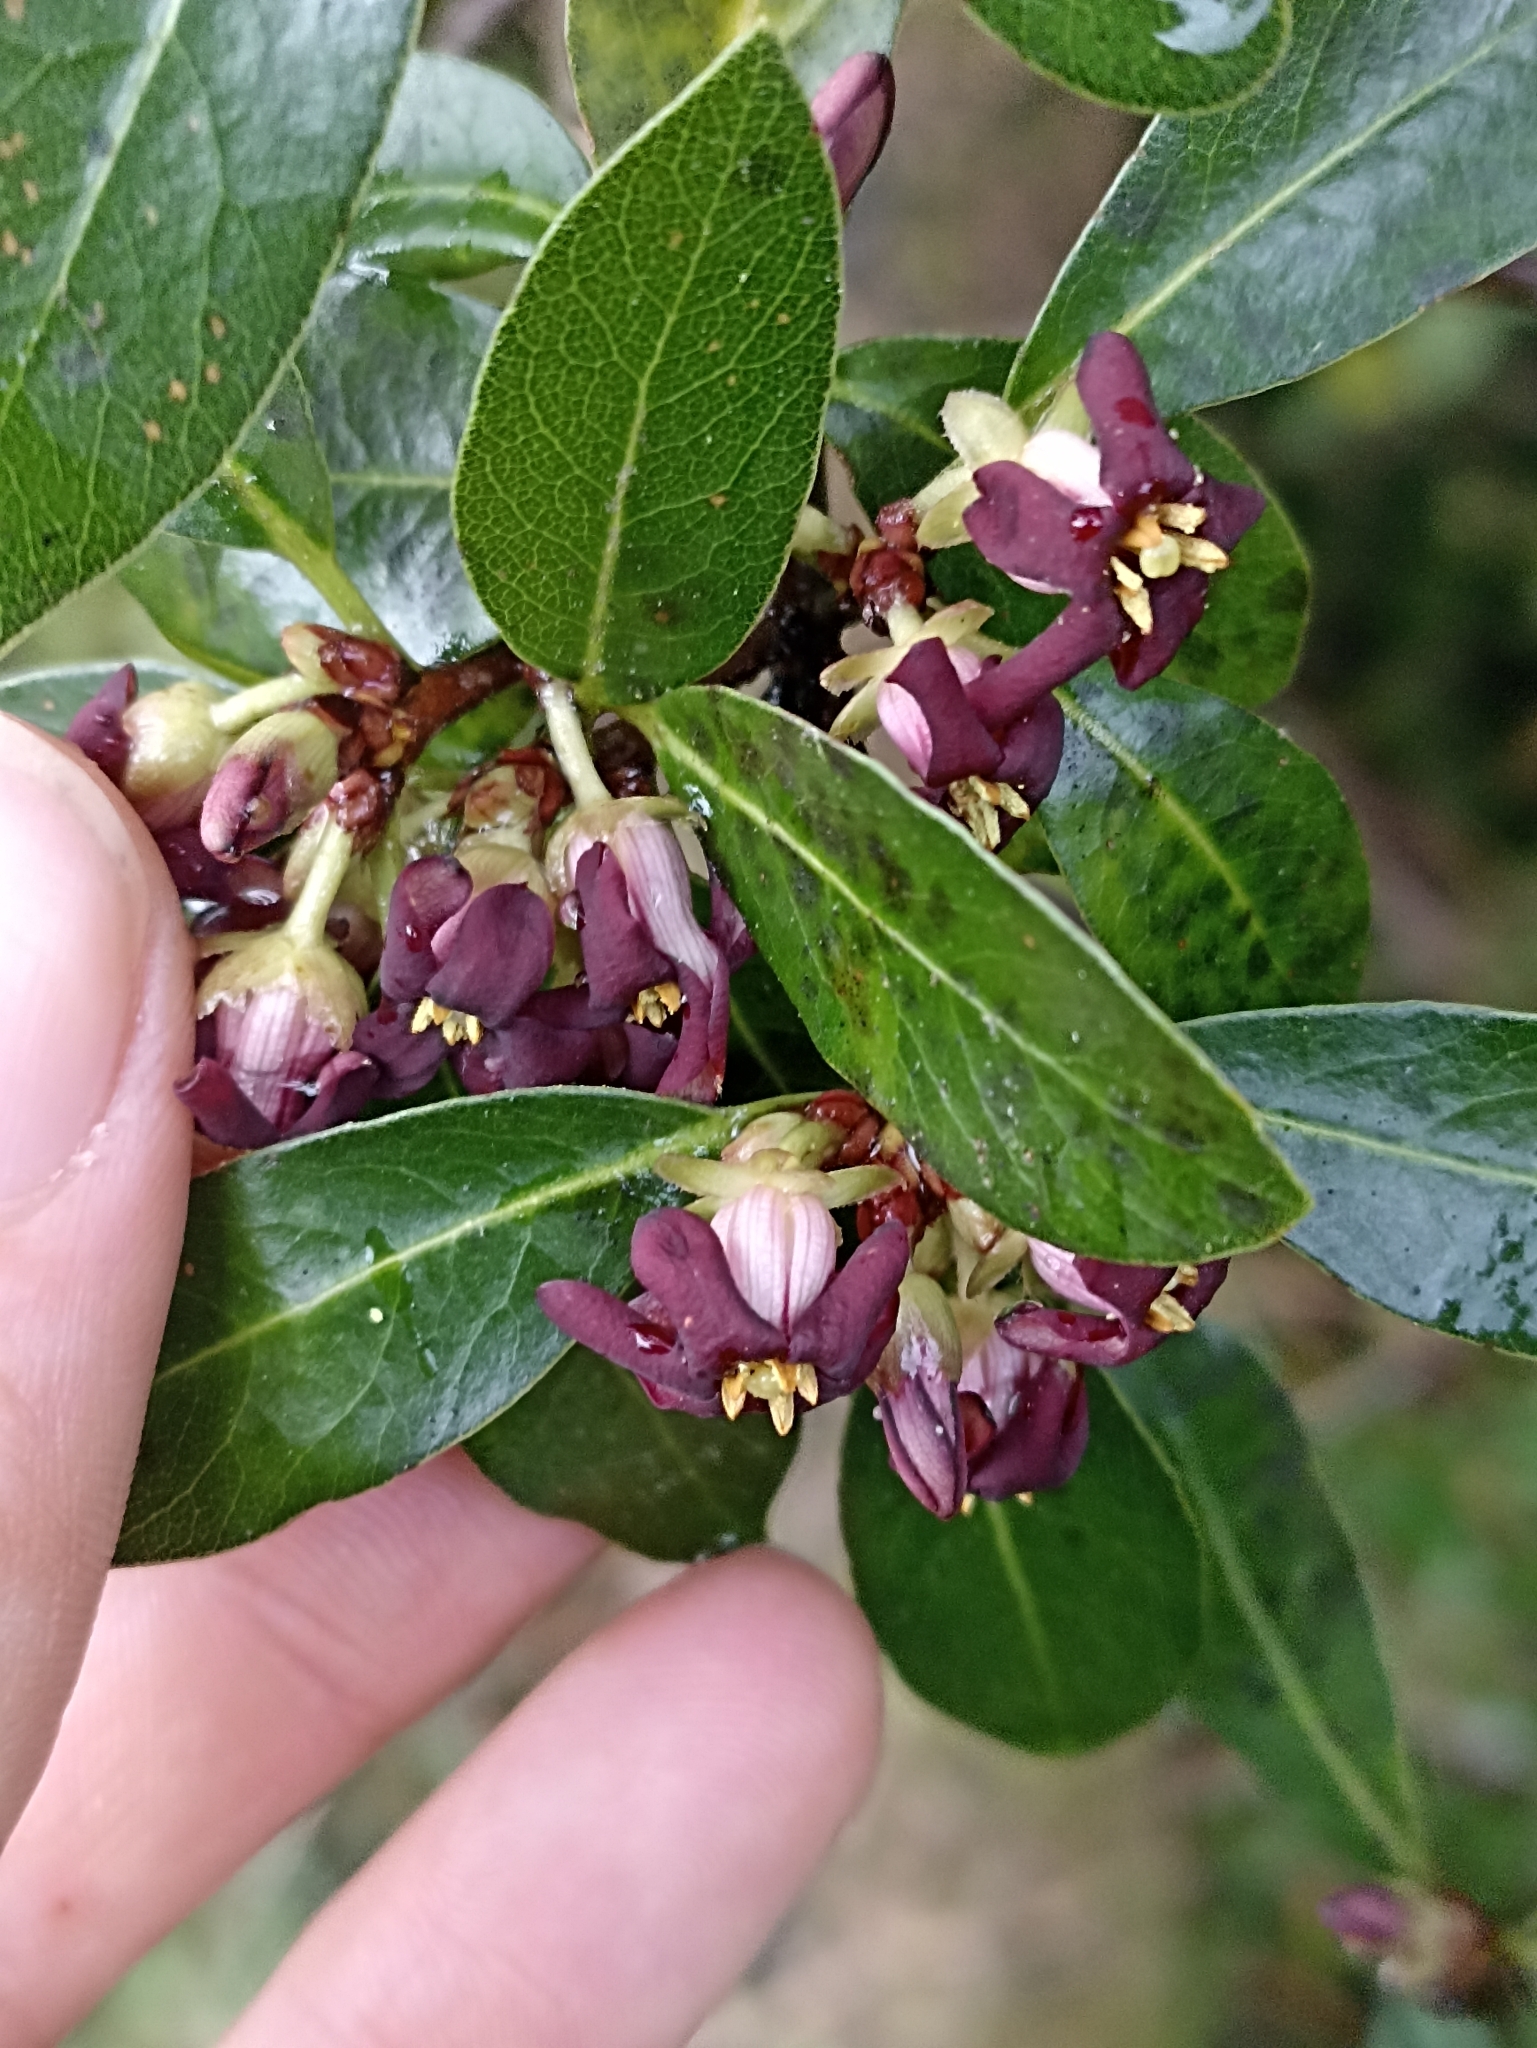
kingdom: Plantae
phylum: Tracheophyta
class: Magnoliopsida
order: Apiales
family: Pittosporaceae
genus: Pittosporum
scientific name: Pittosporum colensoi
